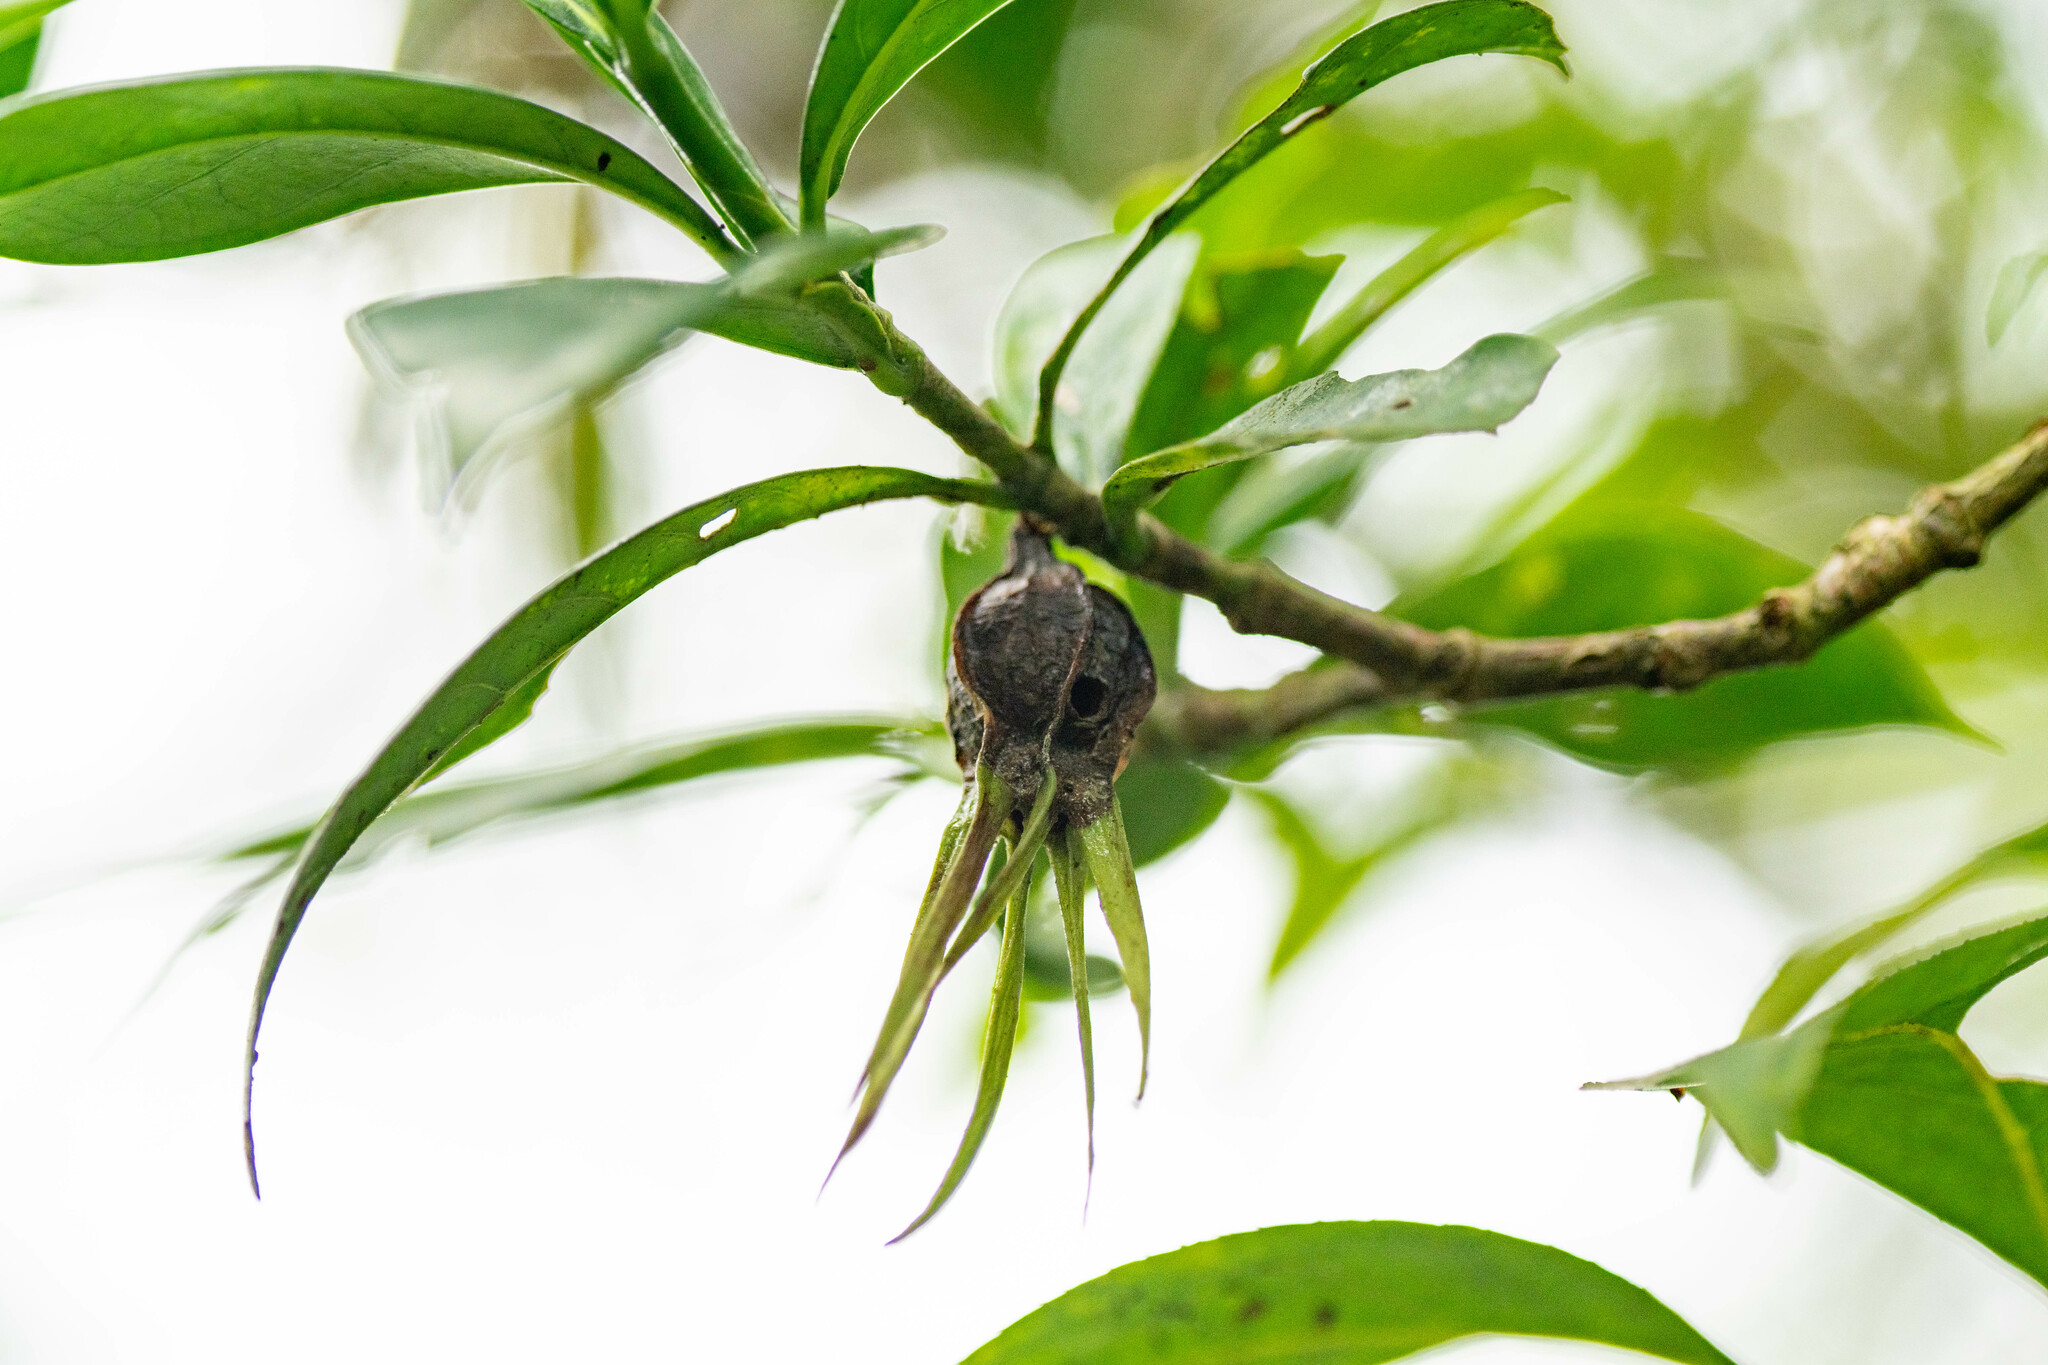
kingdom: Plantae
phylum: Tracheophyta
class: Magnoliopsida
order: Gentianales
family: Rubiaceae
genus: Gardenia
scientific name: Gardenia jasminoides
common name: Cape-jasmine
